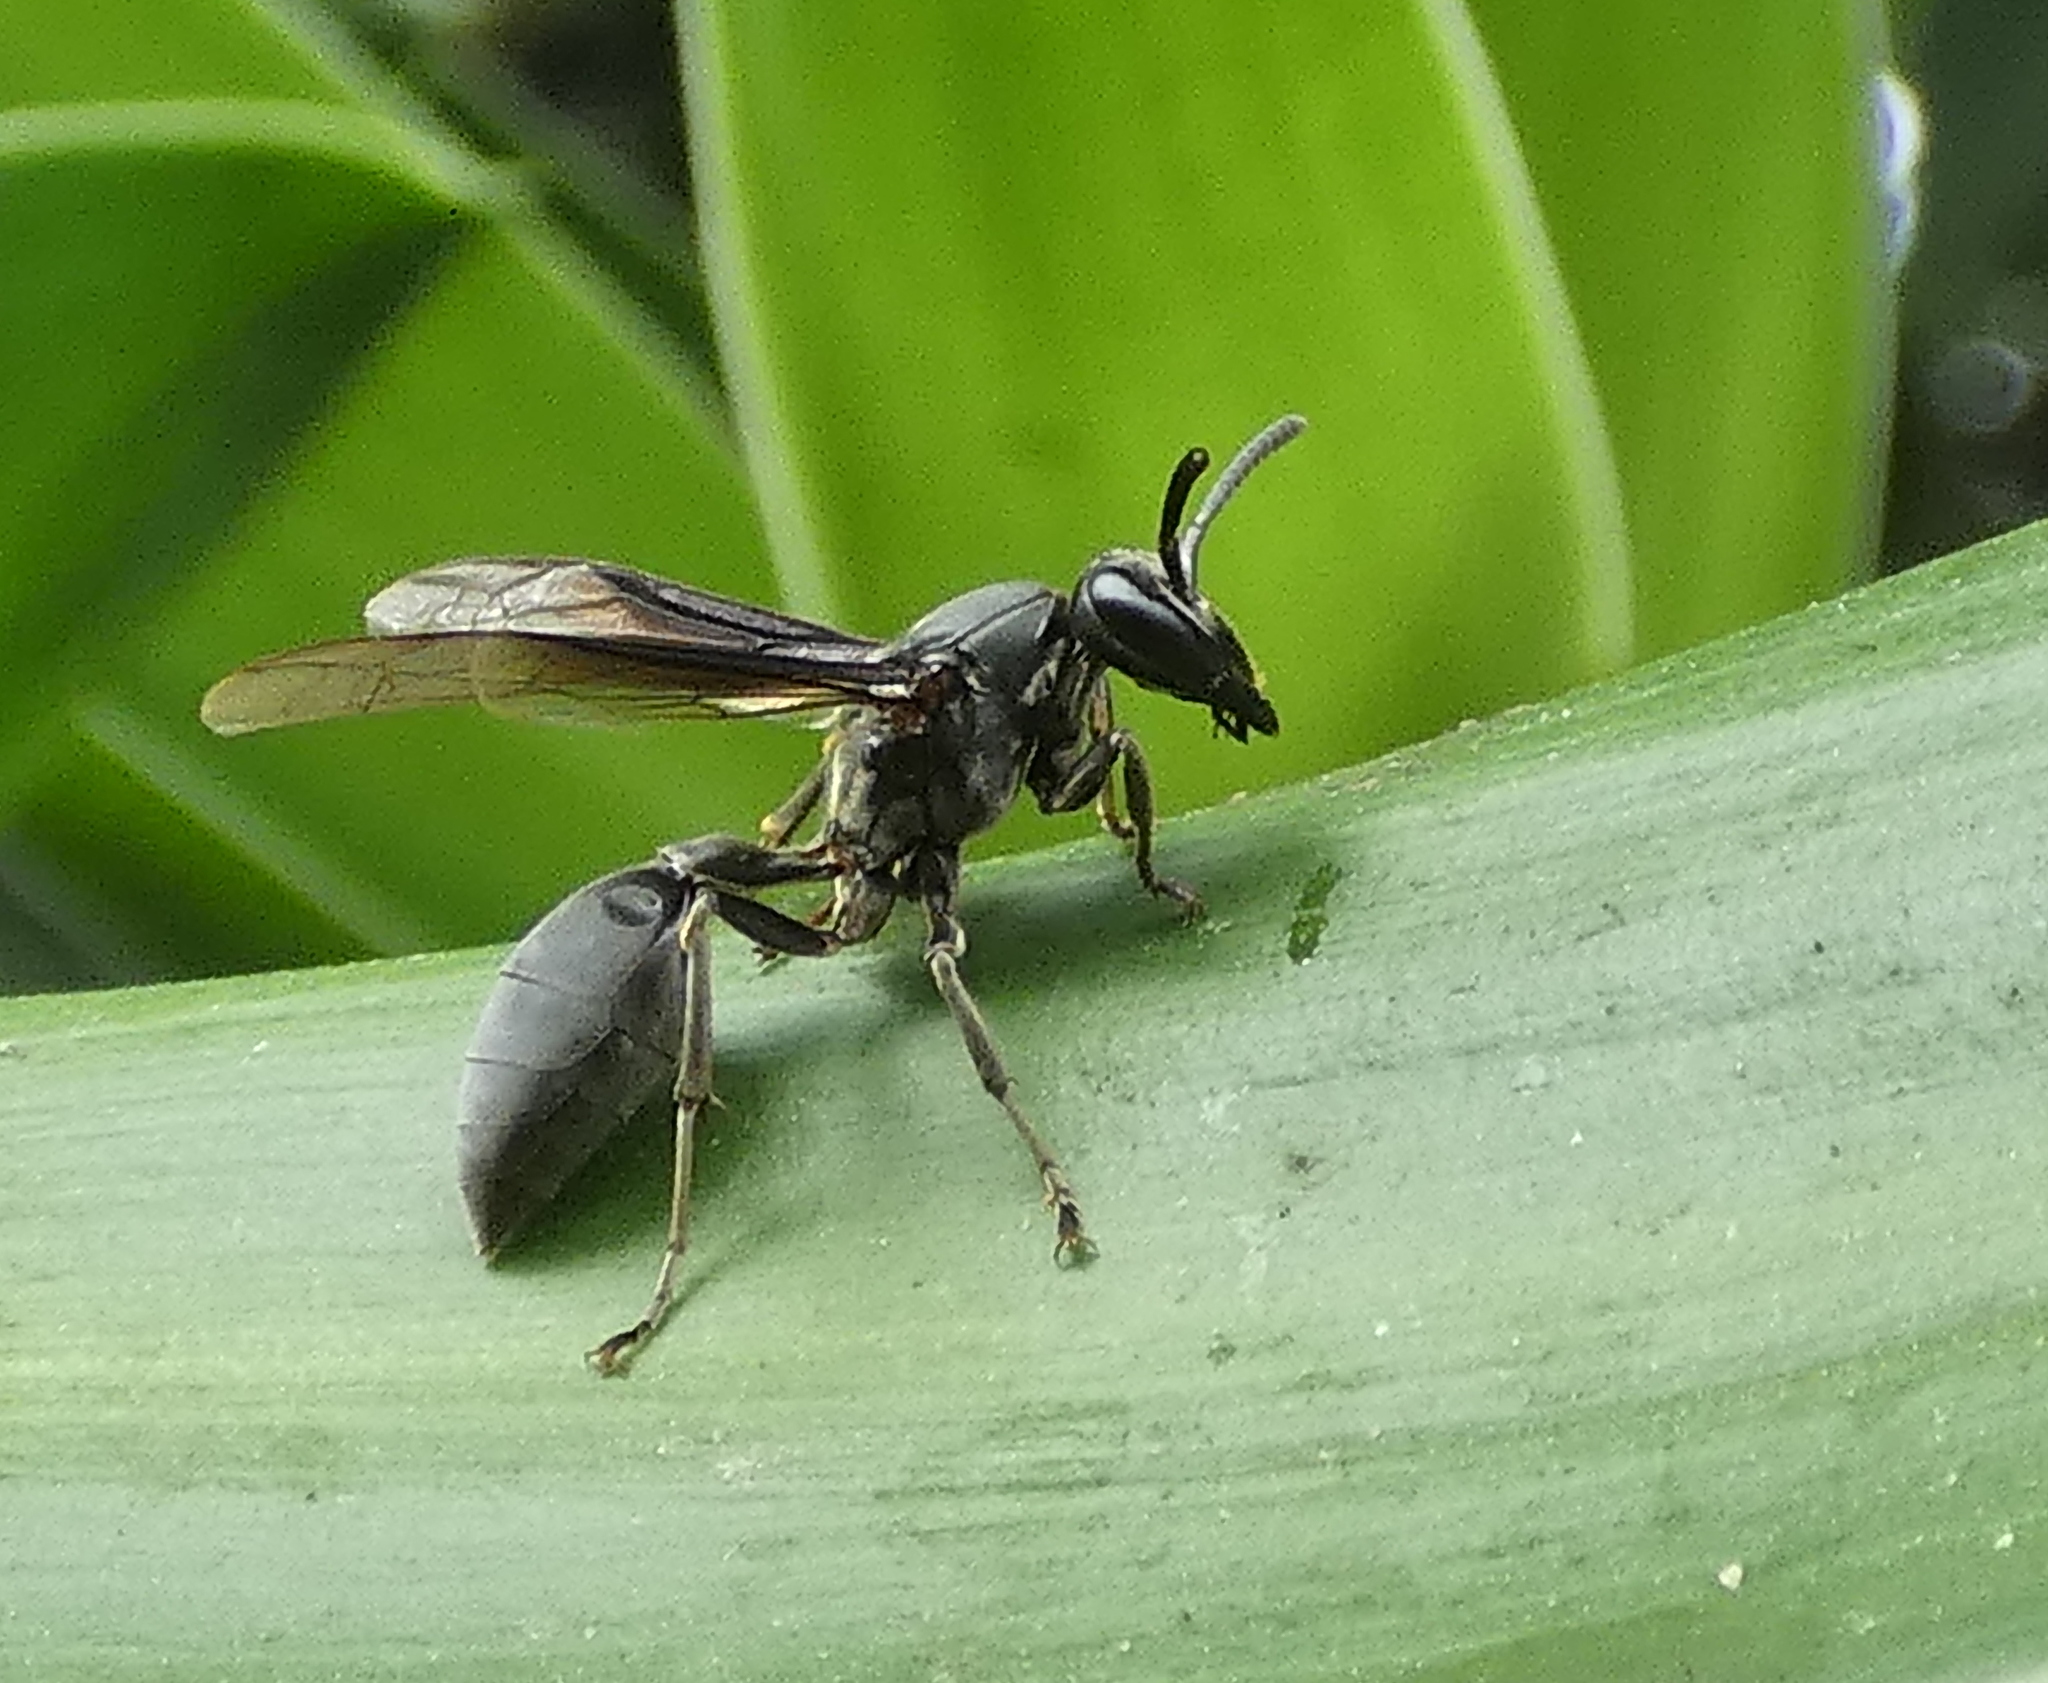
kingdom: Animalia
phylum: Arthropoda
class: Insecta
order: Hymenoptera
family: Eumenidae
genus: Polybia
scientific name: Polybia ignobilis
